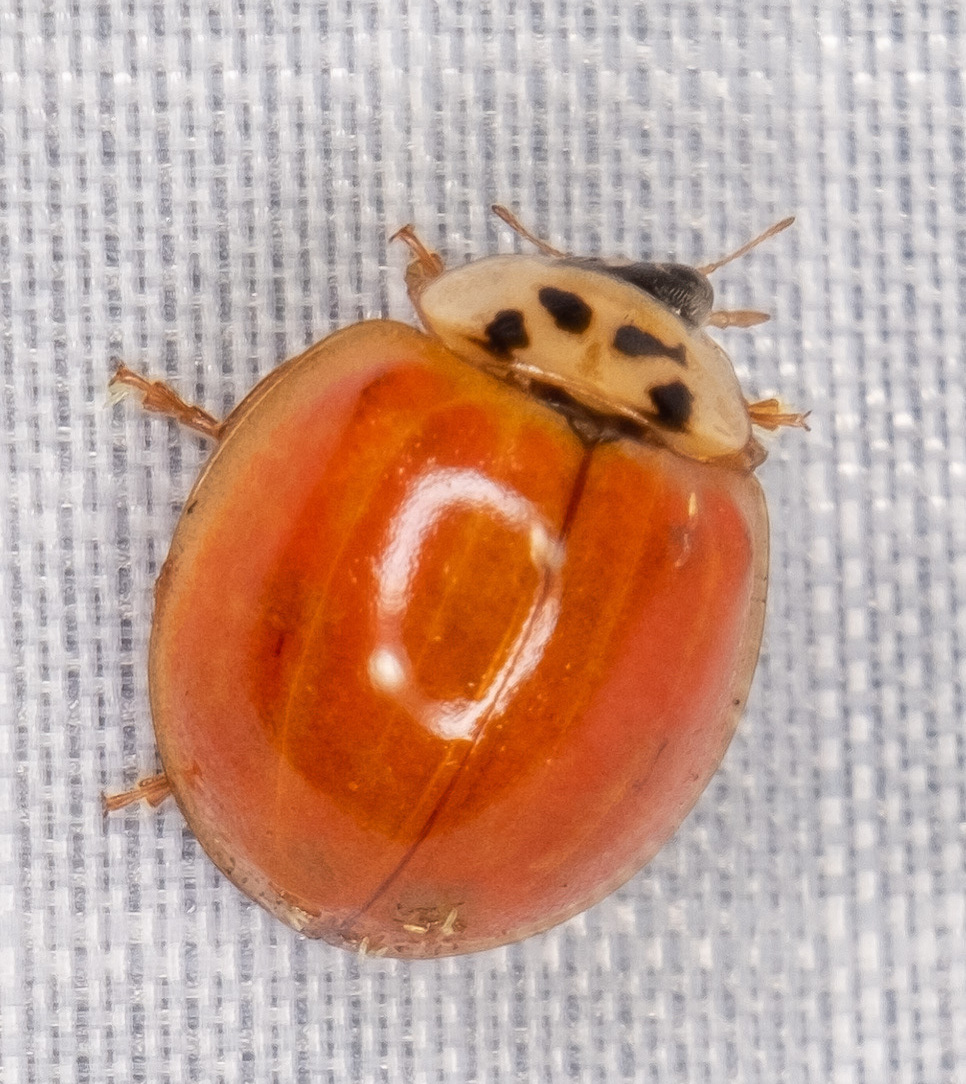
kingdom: Animalia
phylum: Arthropoda
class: Insecta
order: Coleoptera
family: Coccinellidae
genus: Harmonia
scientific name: Harmonia axyridis
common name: Harlequin ladybird
